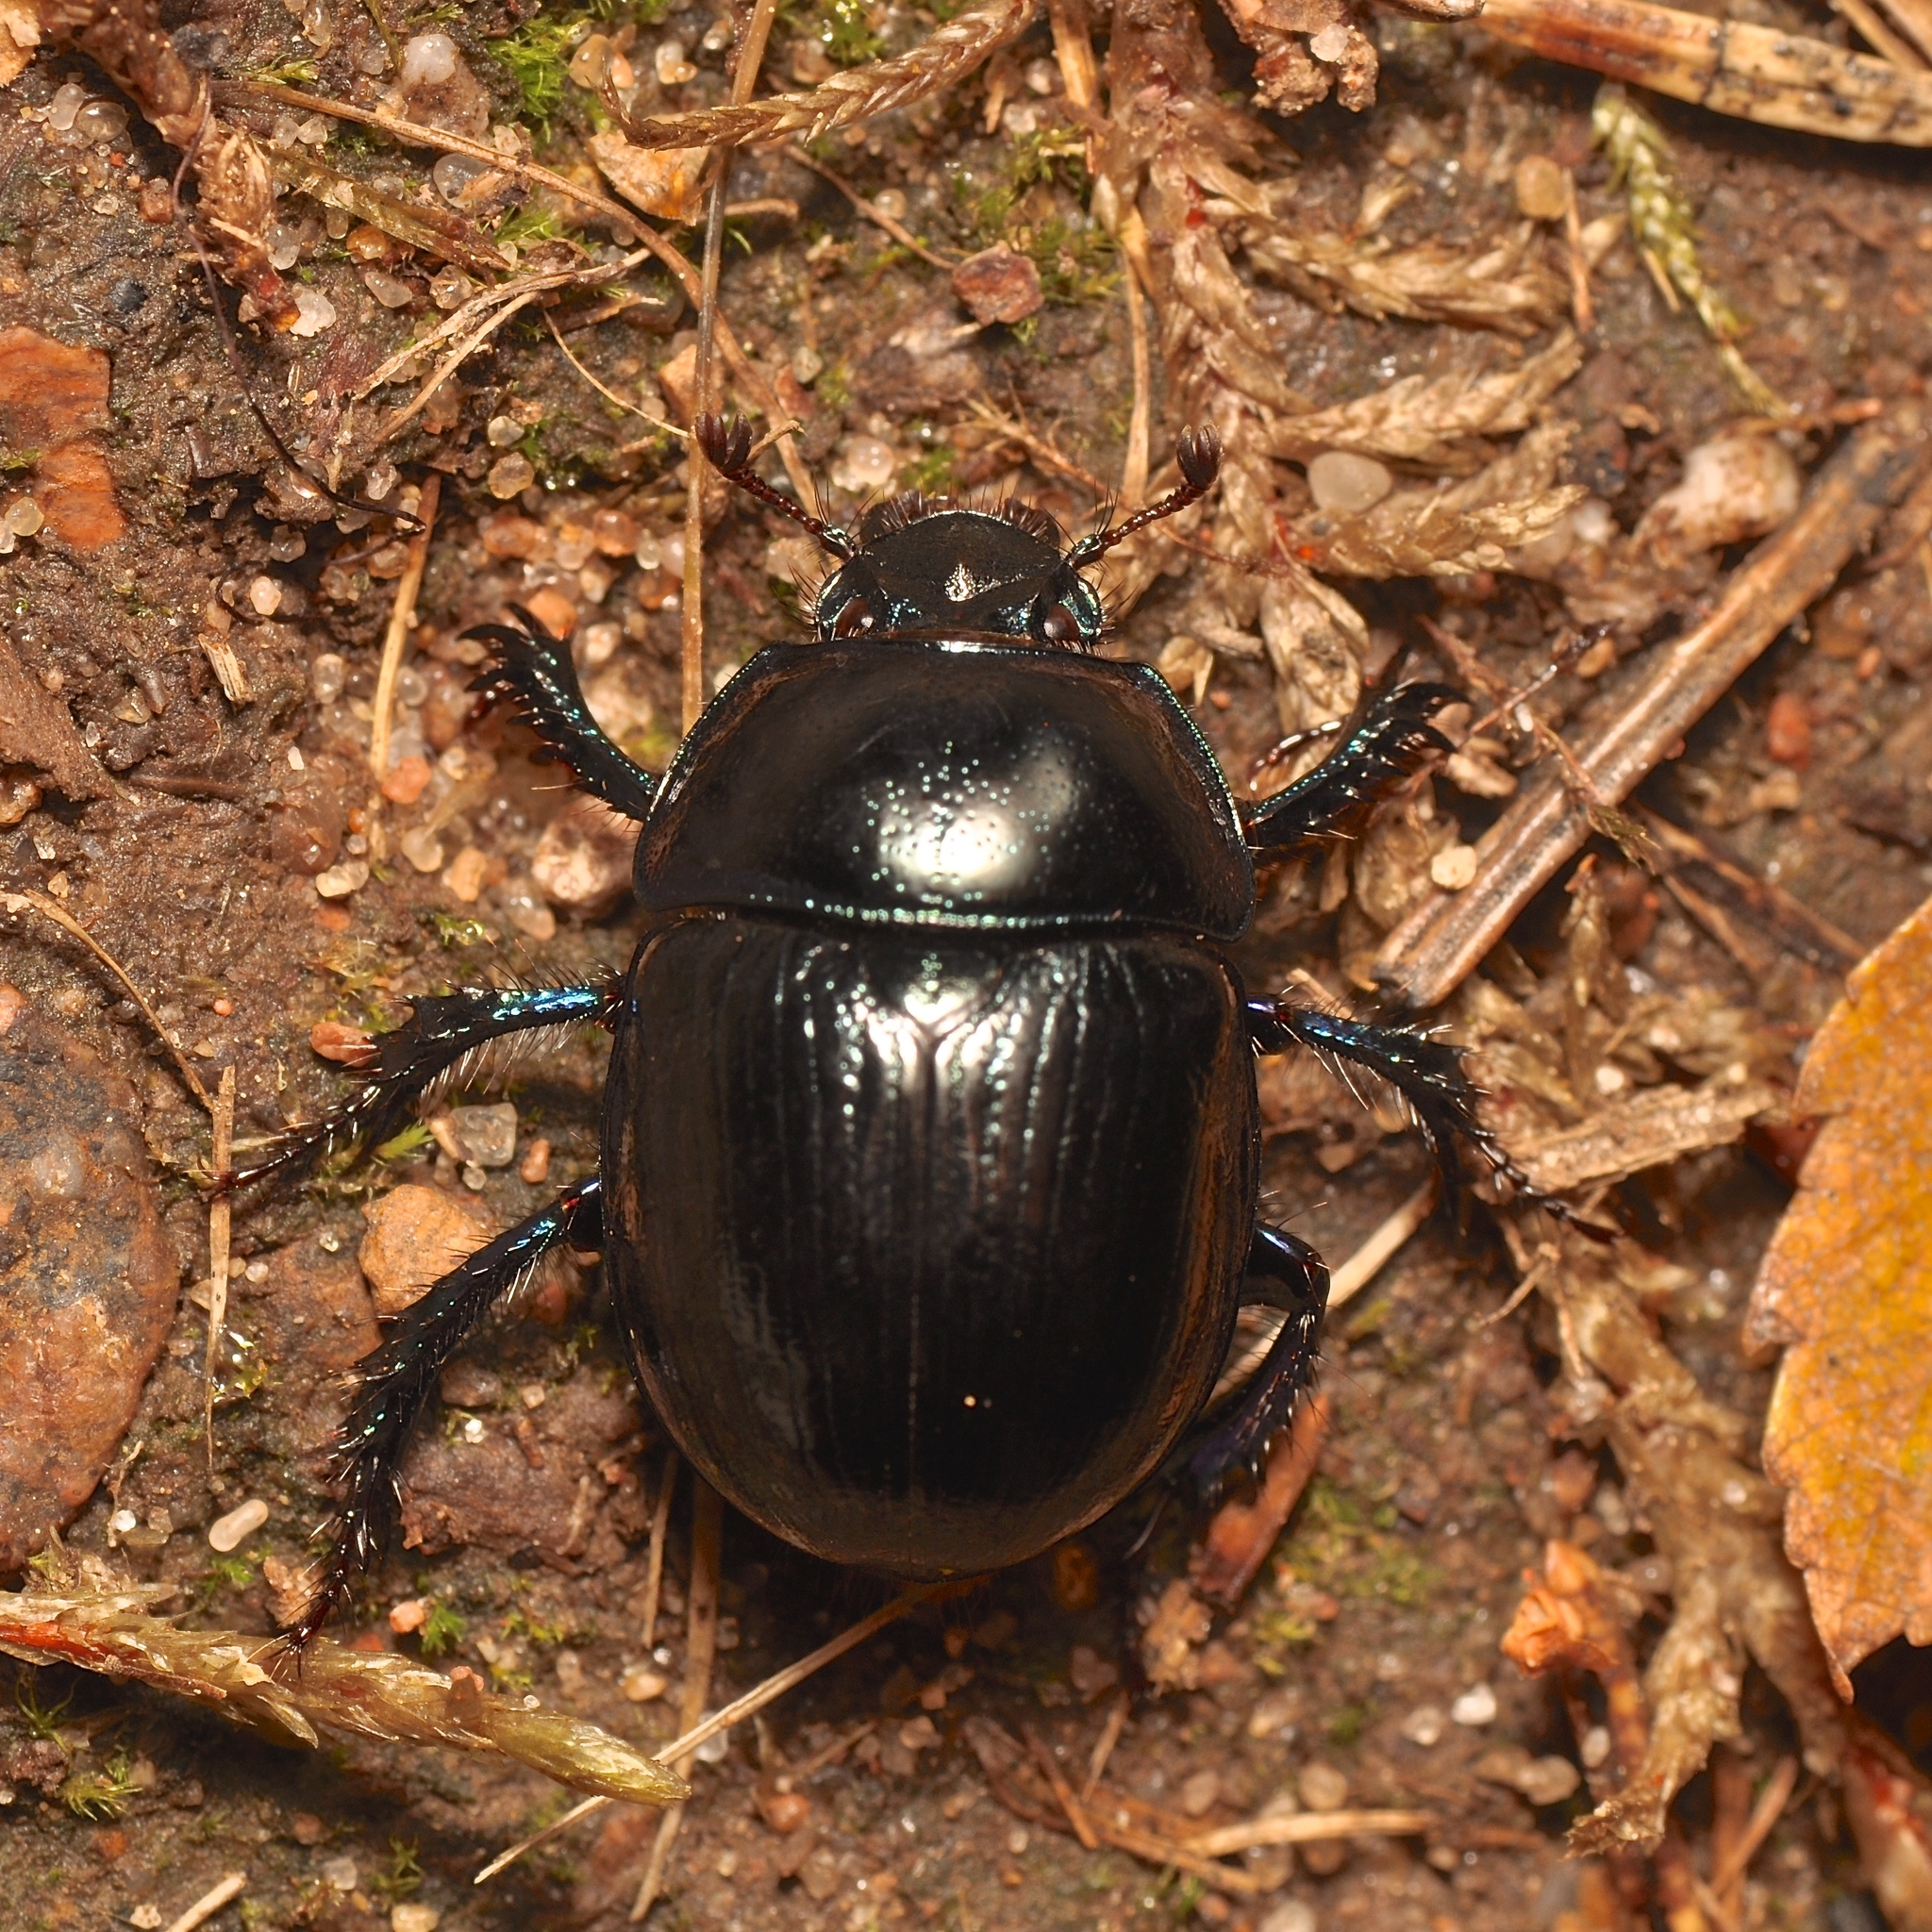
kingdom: Animalia
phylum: Arthropoda
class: Insecta
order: Coleoptera
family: Geotrupidae
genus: Anoplotrupes
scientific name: Anoplotrupes stercorosus
